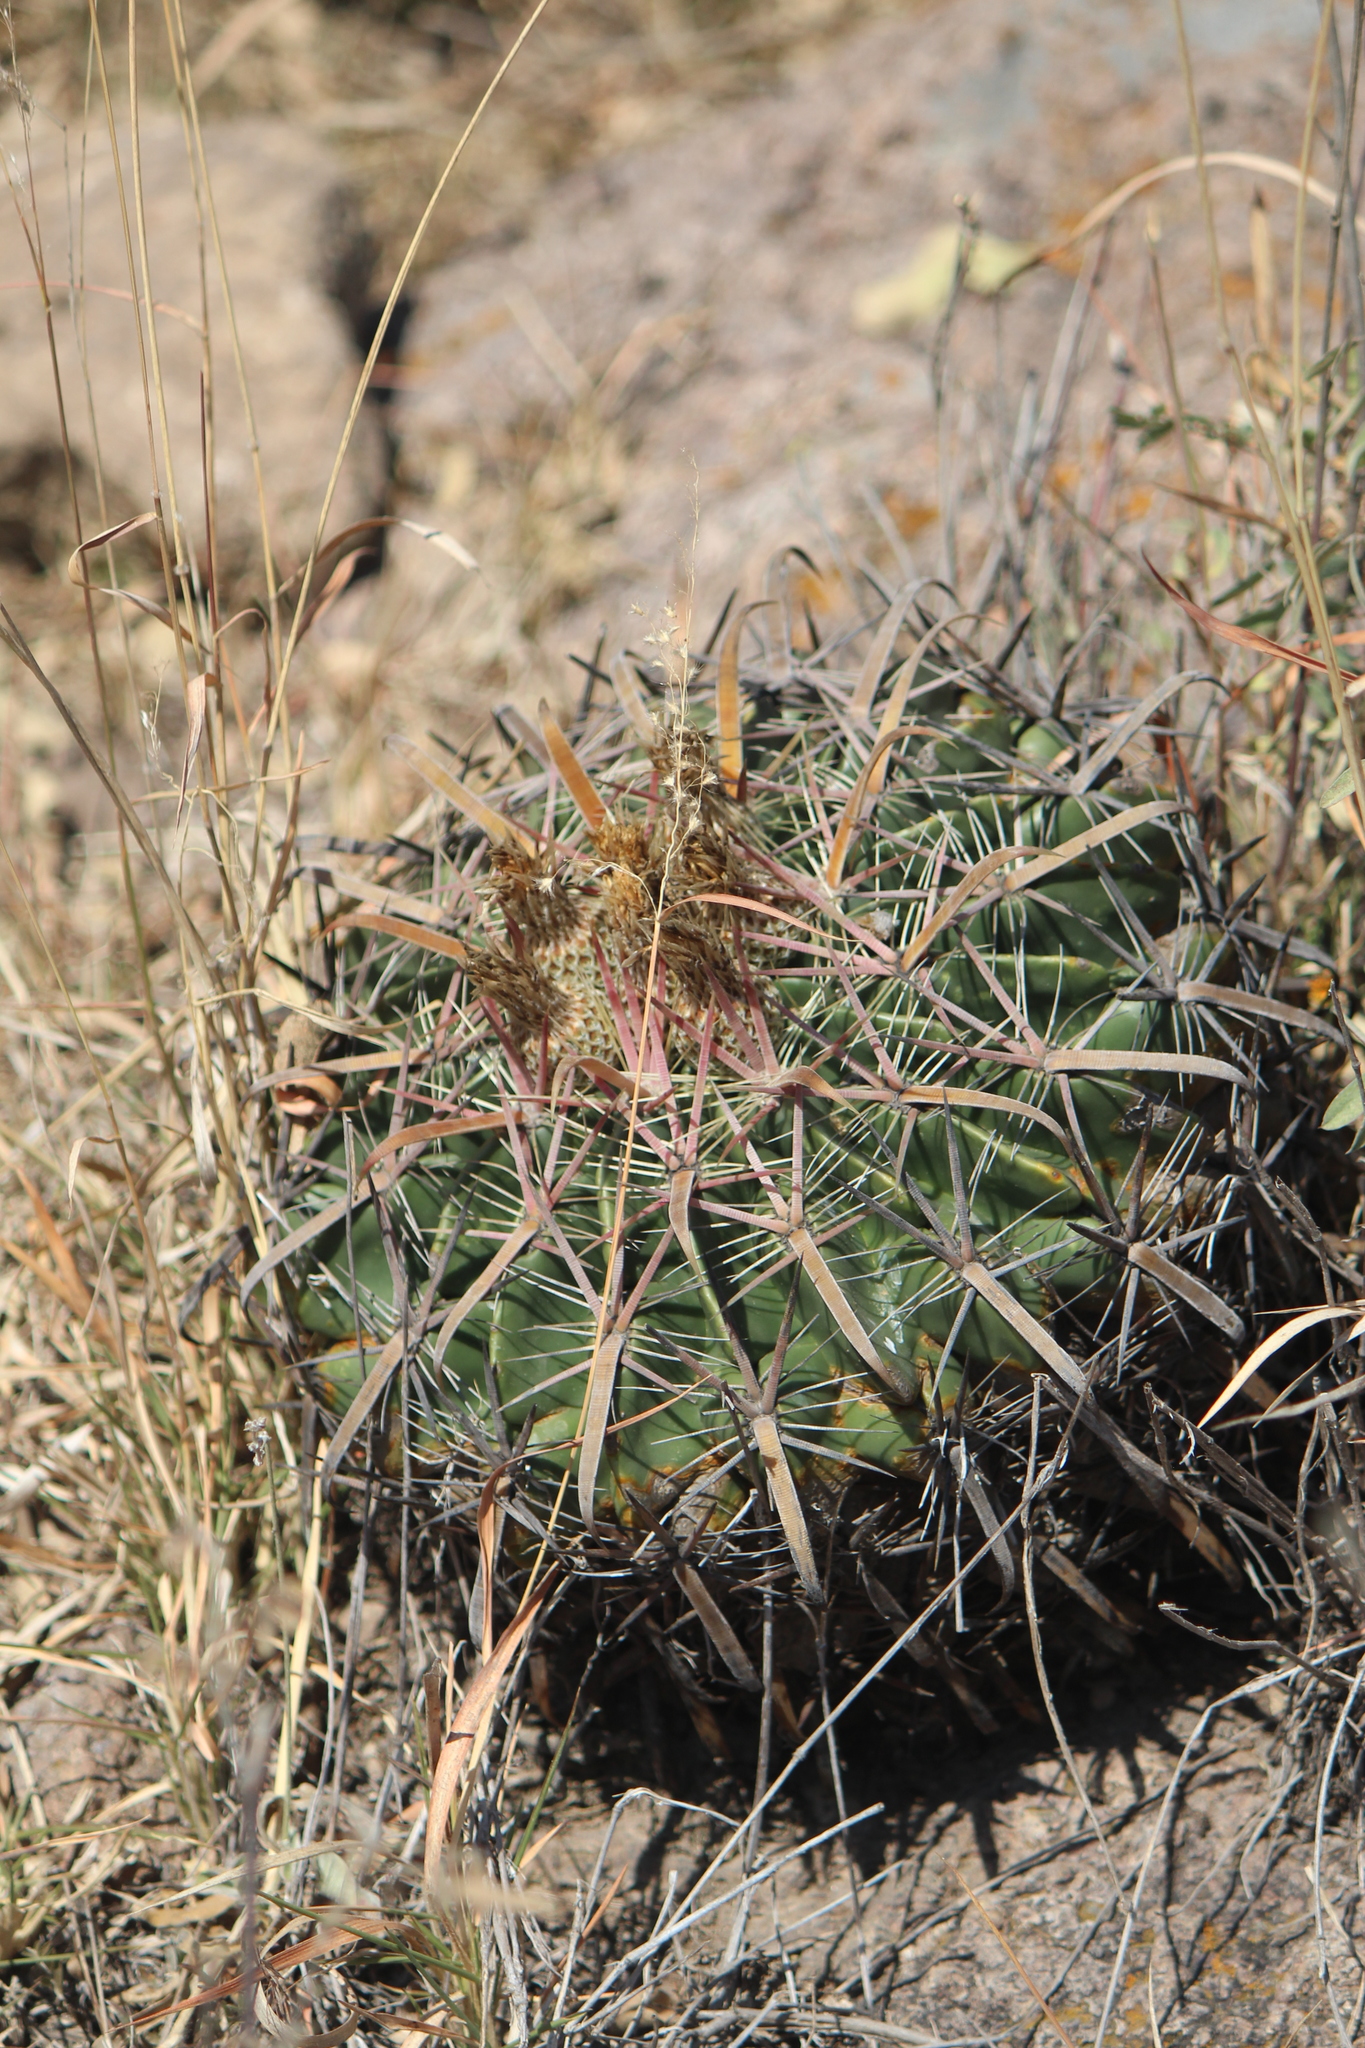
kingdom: Plantae
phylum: Tracheophyta
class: Magnoliopsida
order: Caryophyllales
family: Cactaceae
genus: Ferocactus
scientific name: Ferocactus latispinus
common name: Devil's-tongue cactus
